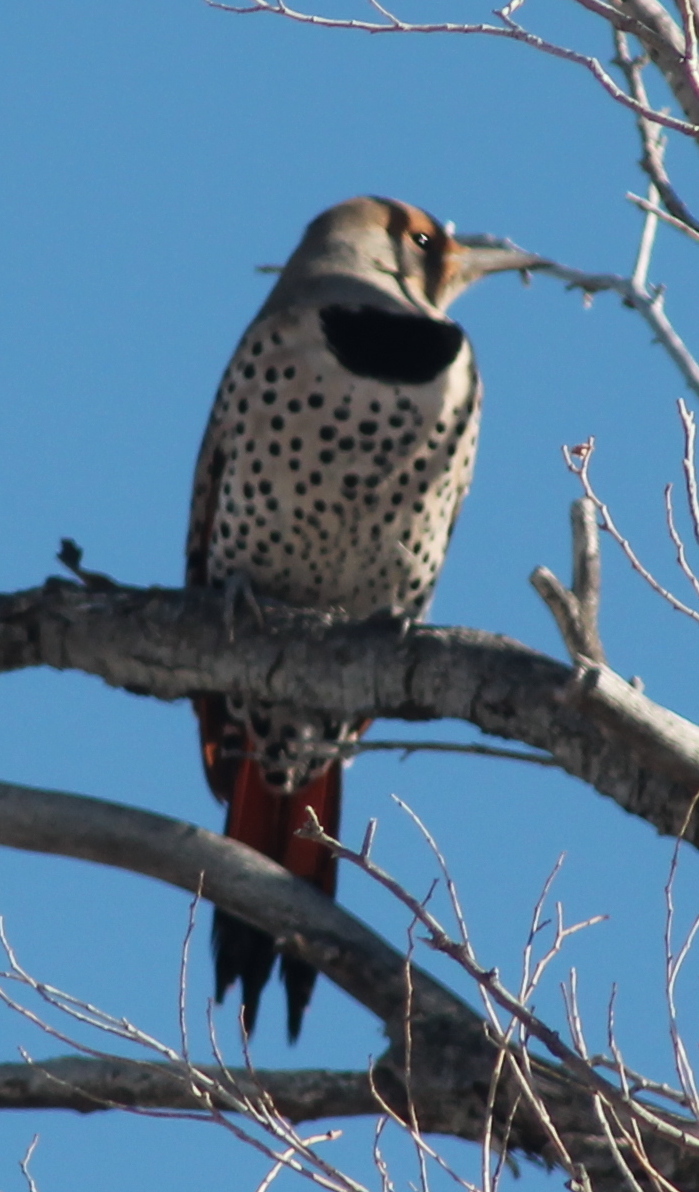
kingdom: Animalia
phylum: Chordata
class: Aves
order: Piciformes
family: Picidae
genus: Colaptes
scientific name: Colaptes auratus
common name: Northern flicker
